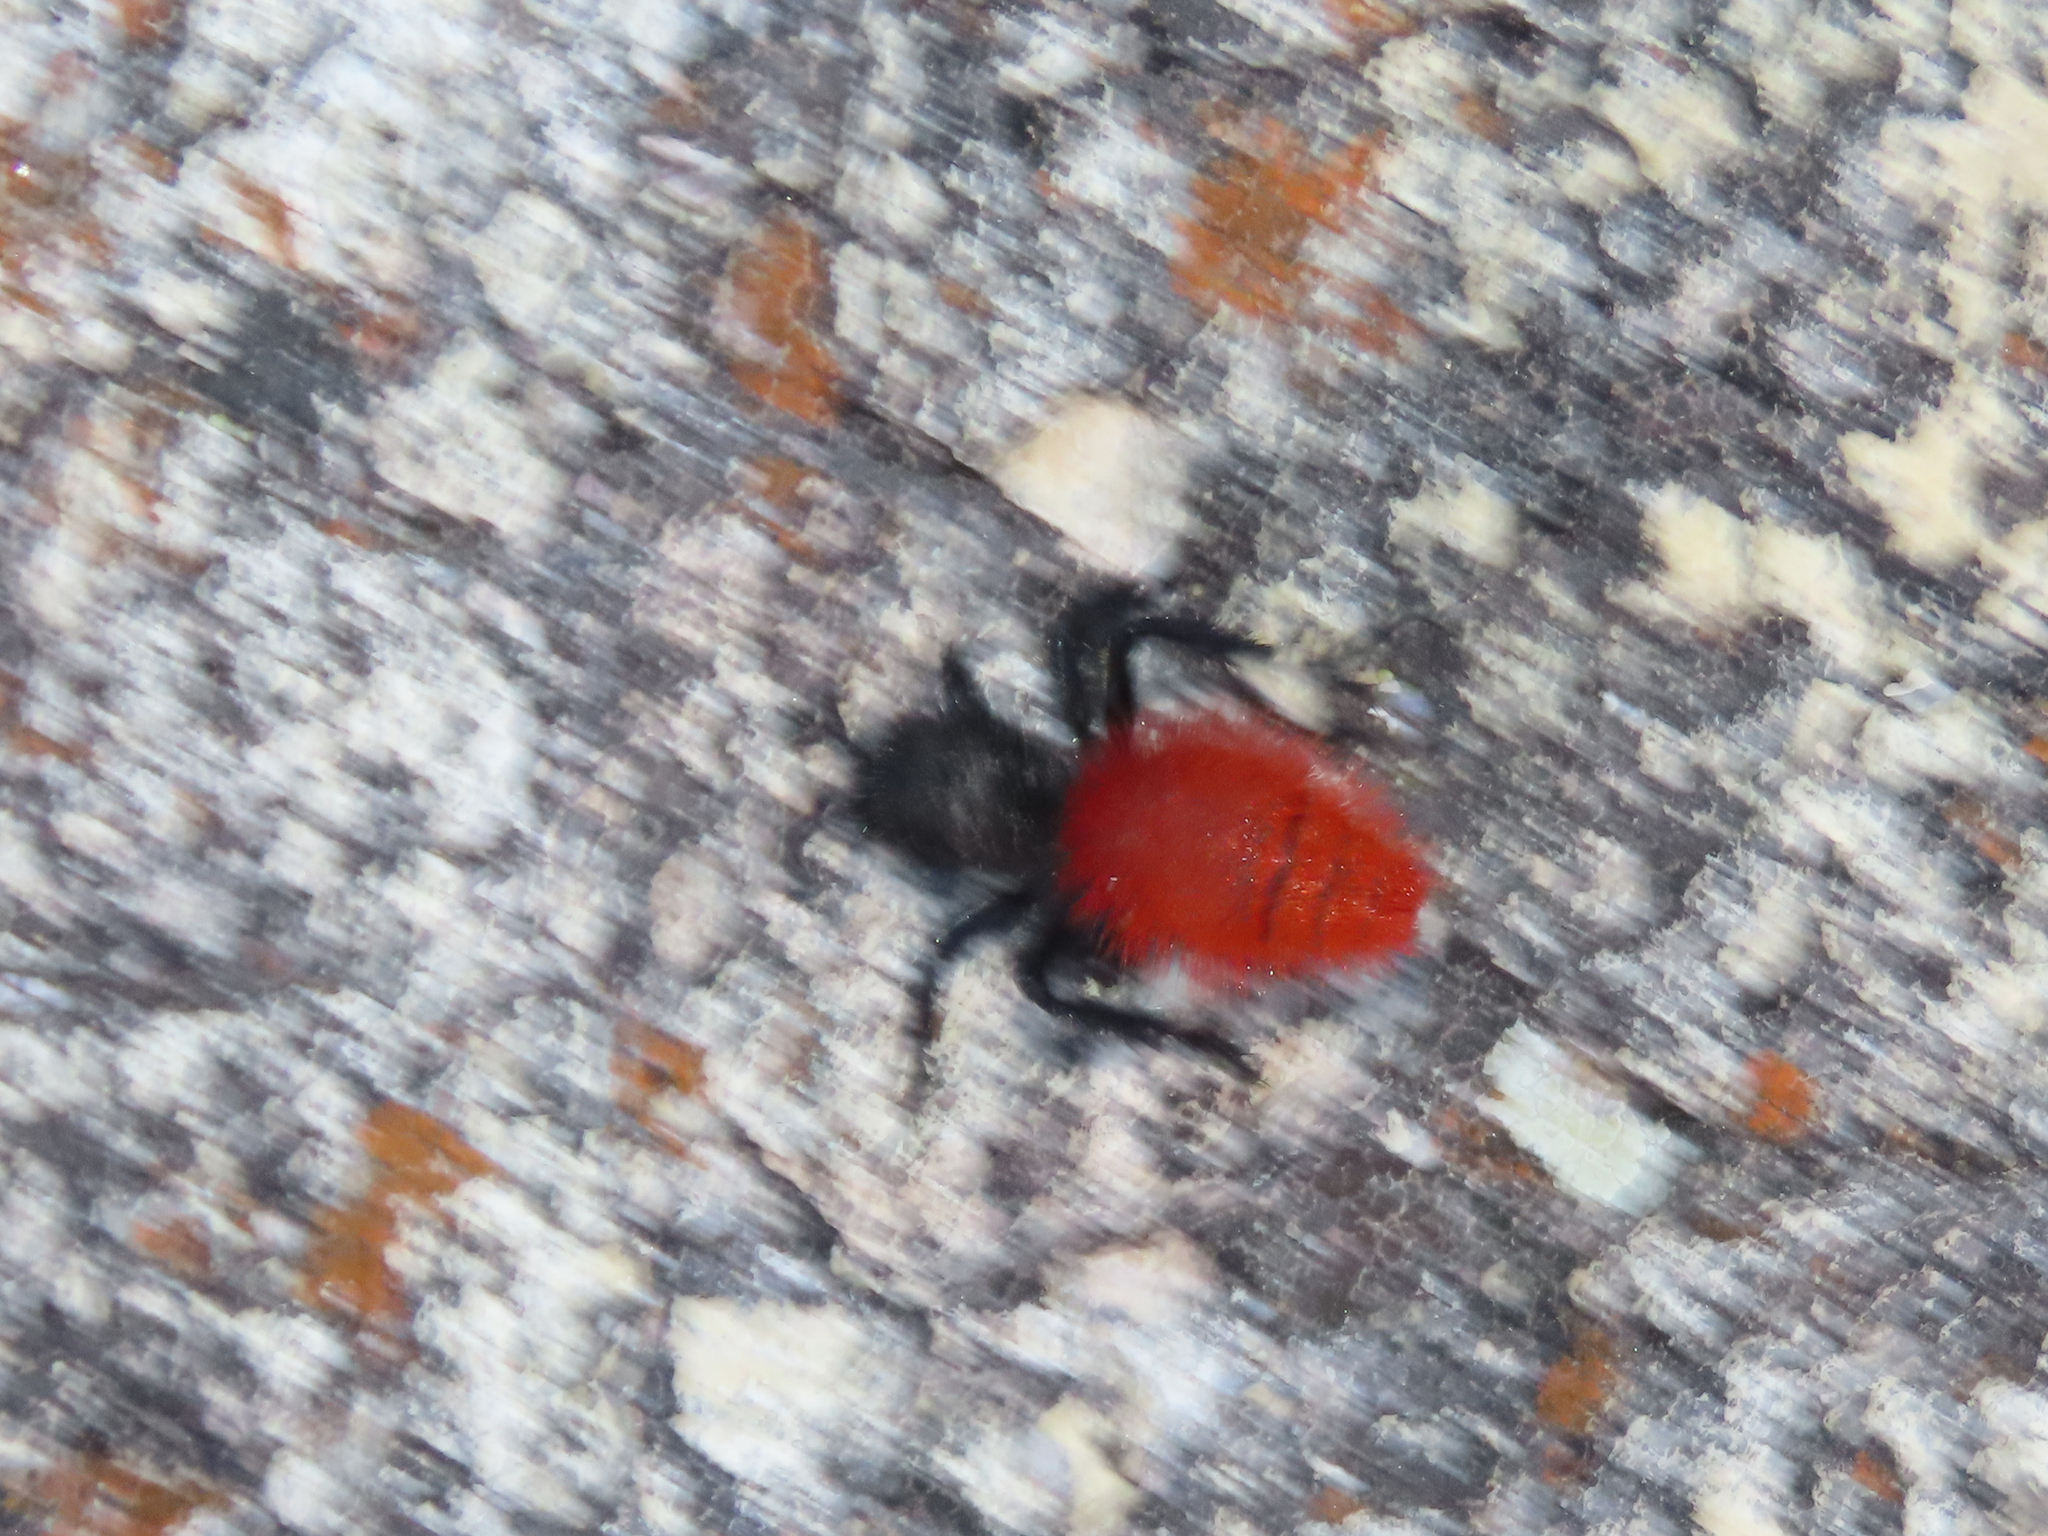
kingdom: Animalia
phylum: Arthropoda
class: Insecta
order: Hymenoptera
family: Mutillidae
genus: Dasymutilla
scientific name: Dasymutilla magnifica
